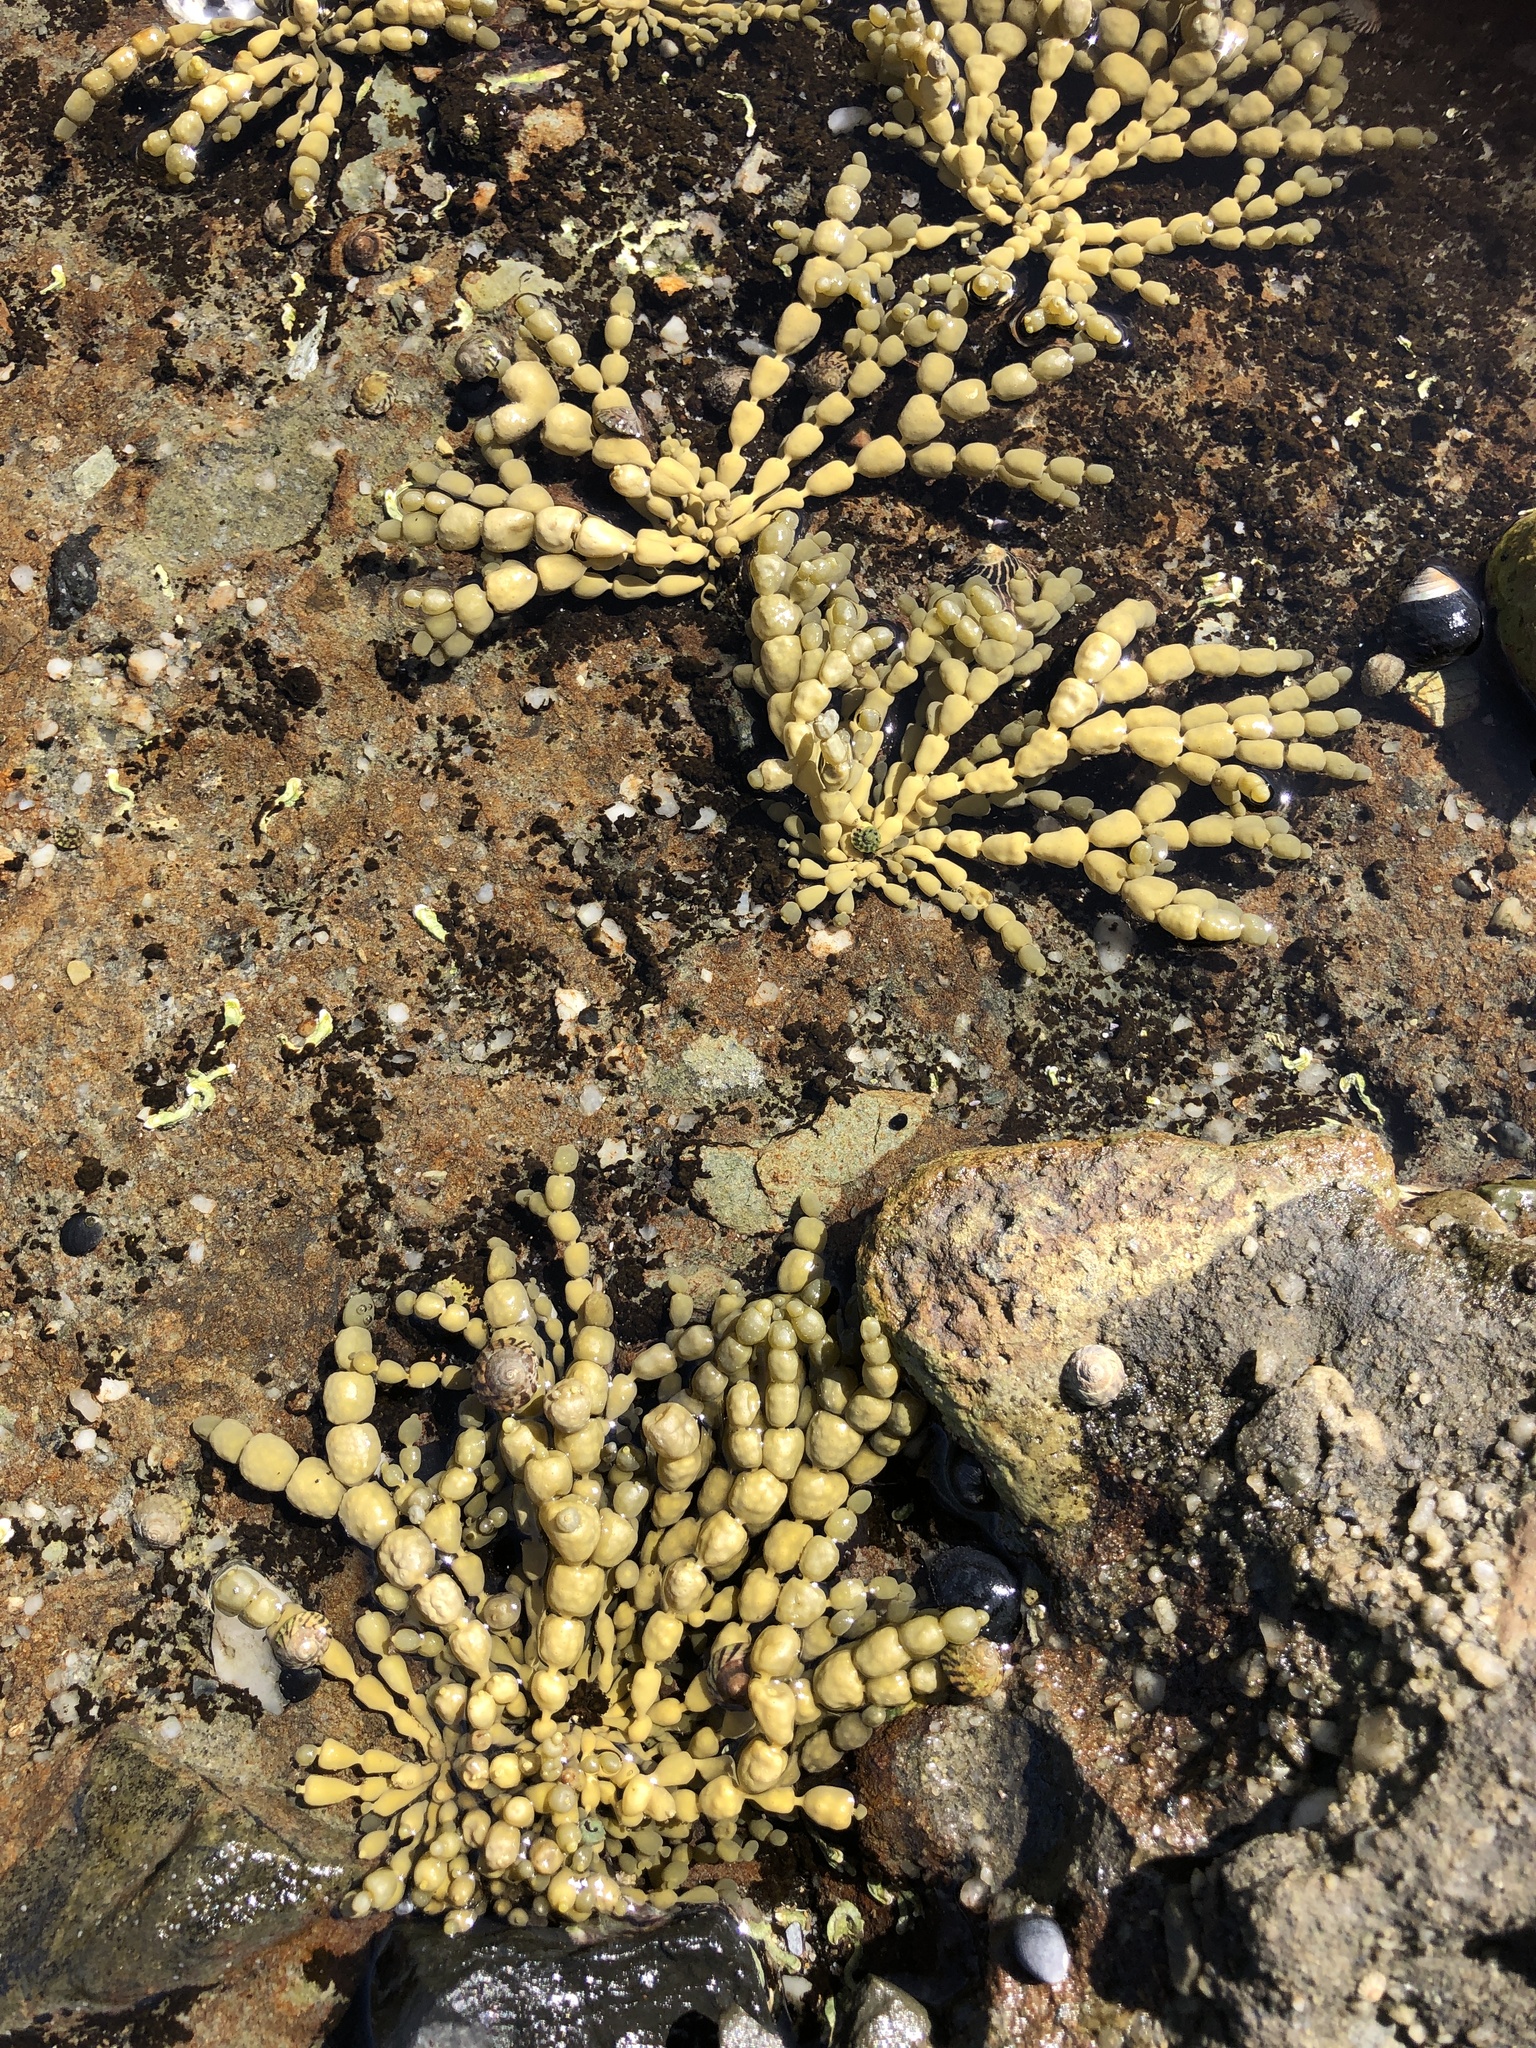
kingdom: Chromista
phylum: Ochrophyta
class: Phaeophyceae
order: Fucales
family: Hormosiraceae
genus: Hormosira
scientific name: Hormosira banksii
